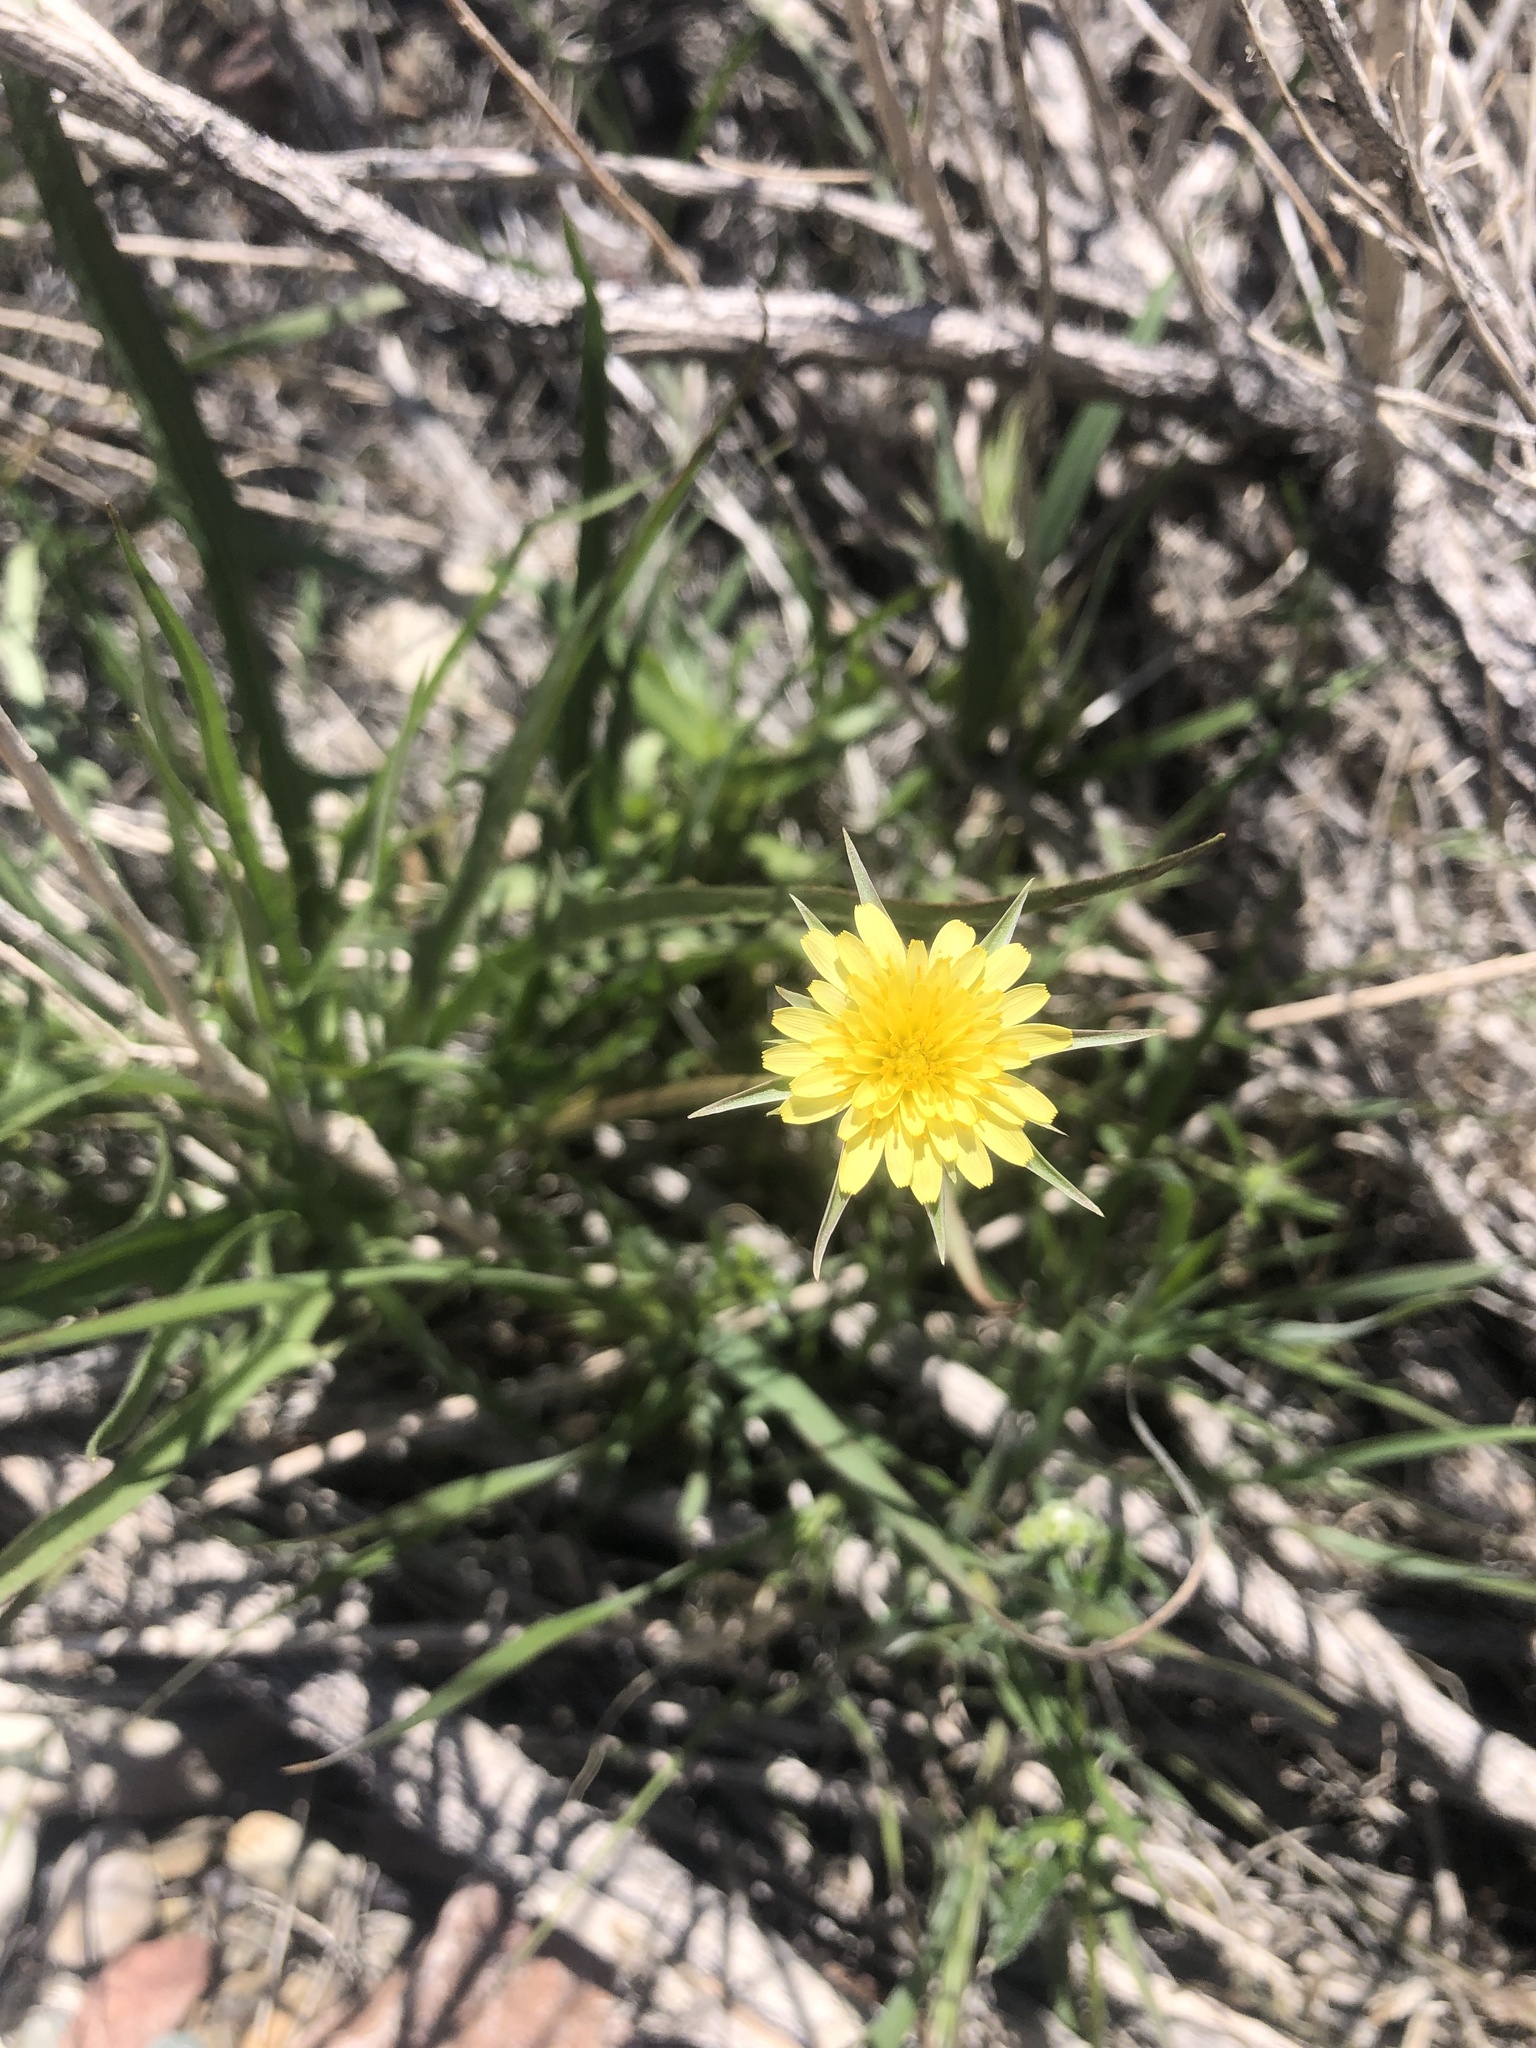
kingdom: Plantae
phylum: Tracheophyta
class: Magnoliopsida
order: Asterales
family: Asteraceae
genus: Malacothrix
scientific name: Malacothrix glabrata
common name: Smooth desert-dandelion
